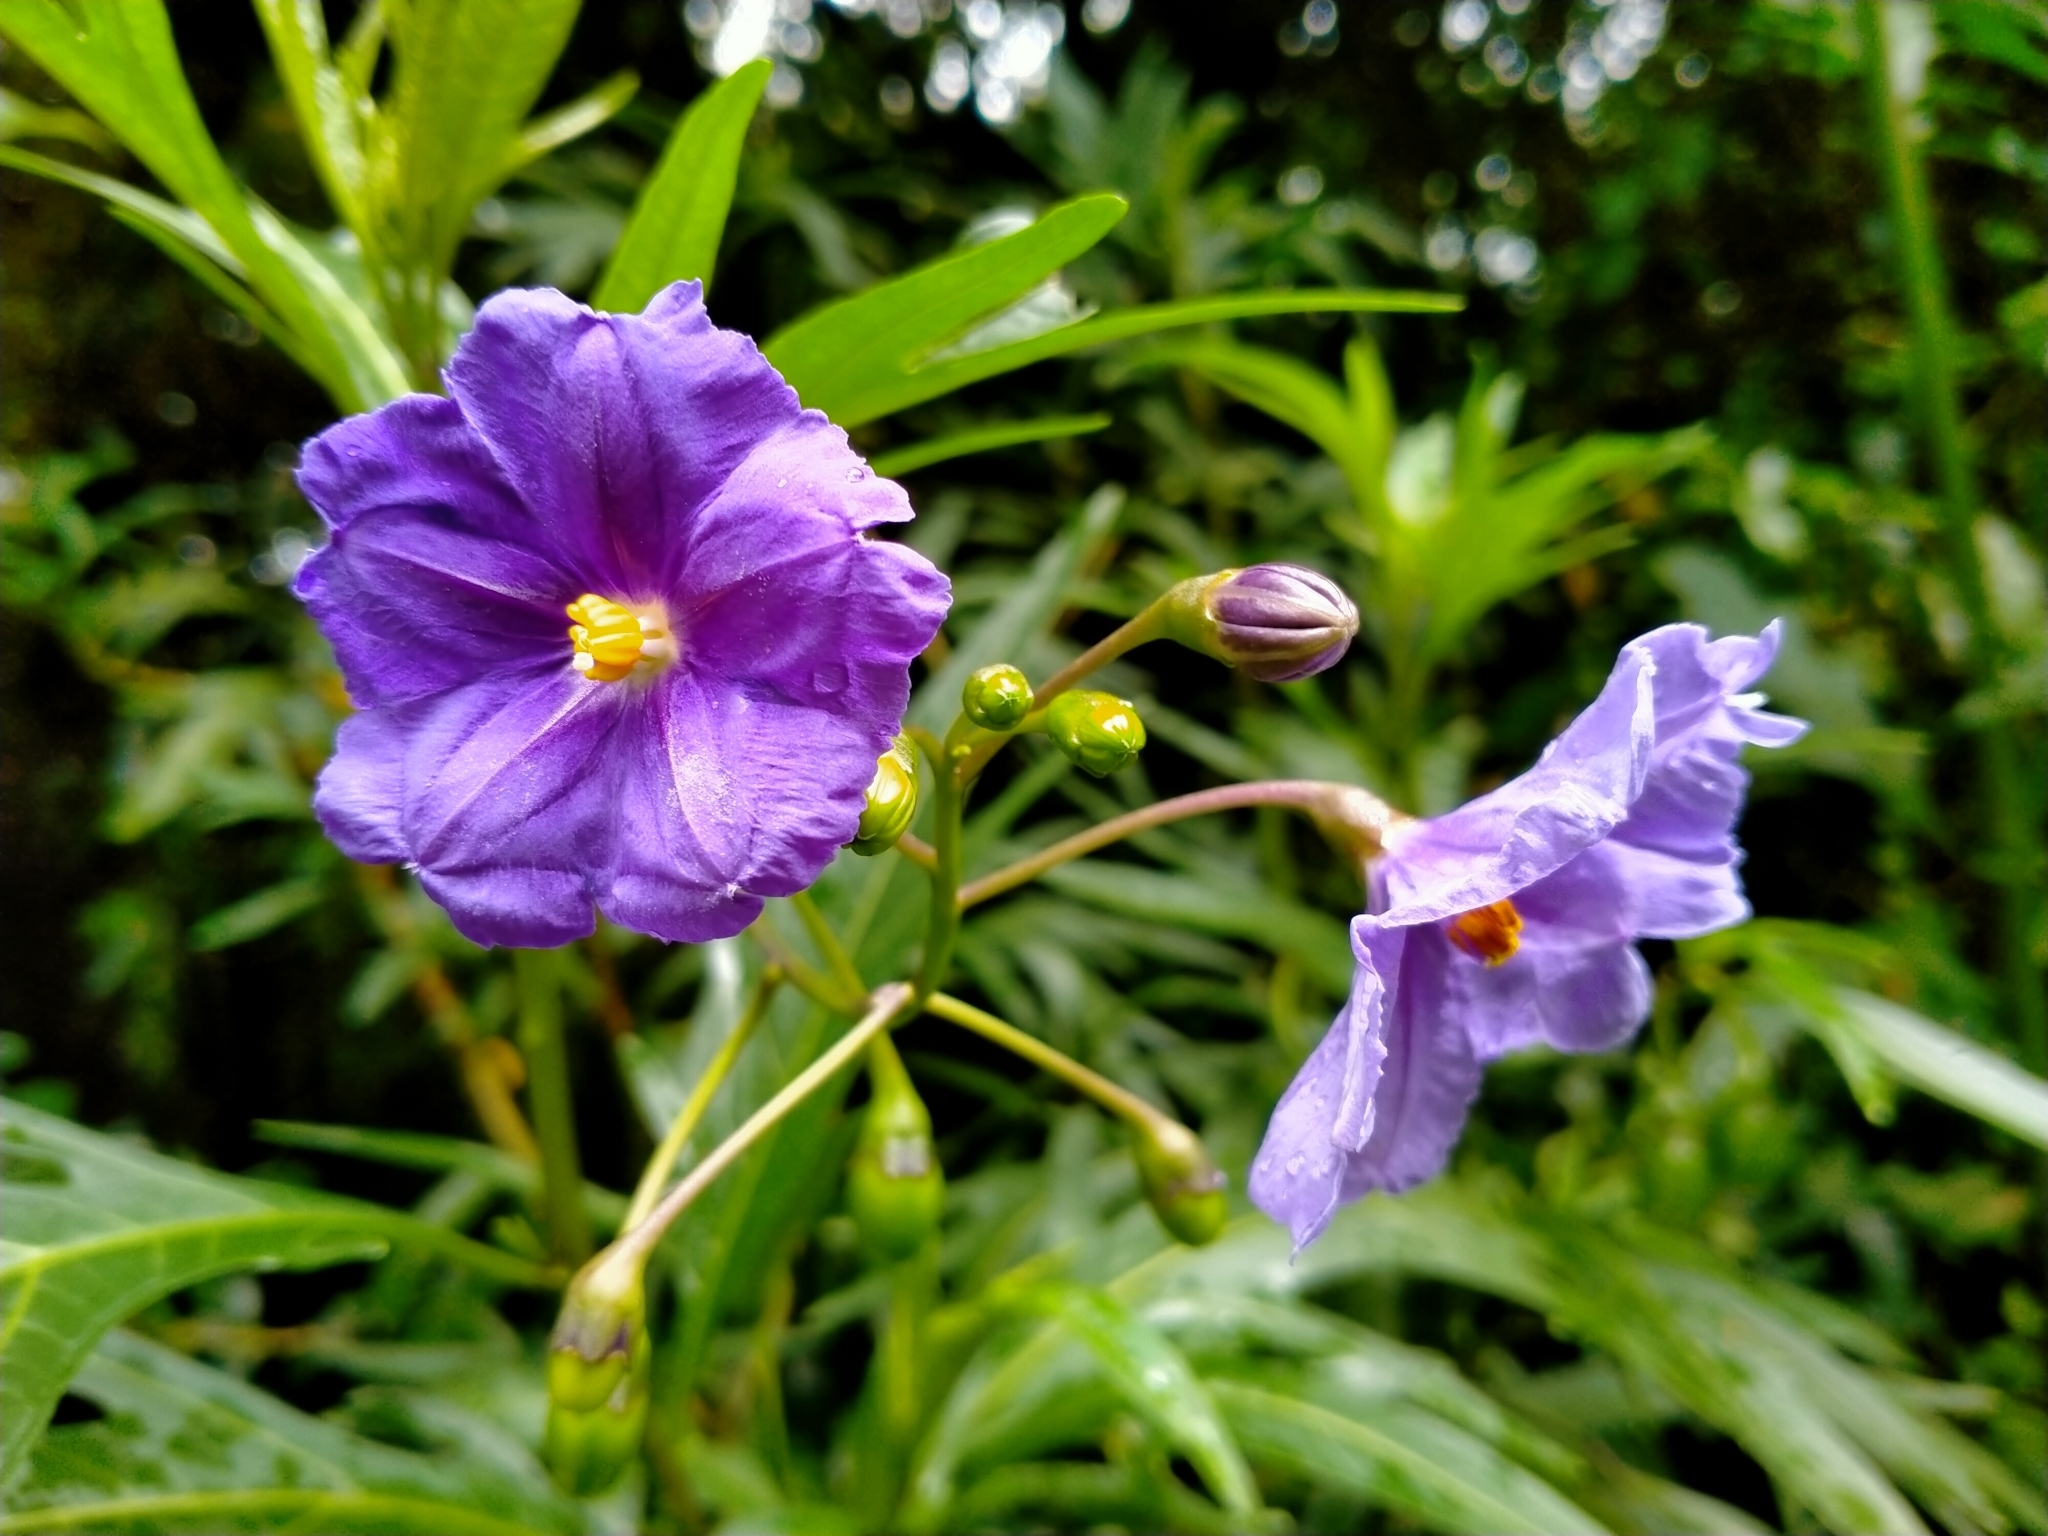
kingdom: Plantae
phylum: Tracheophyta
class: Magnoliopsida
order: Solanales
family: Solanaceae
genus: Solanum
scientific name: Solanum laciniatum
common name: Kangaroo-apple
